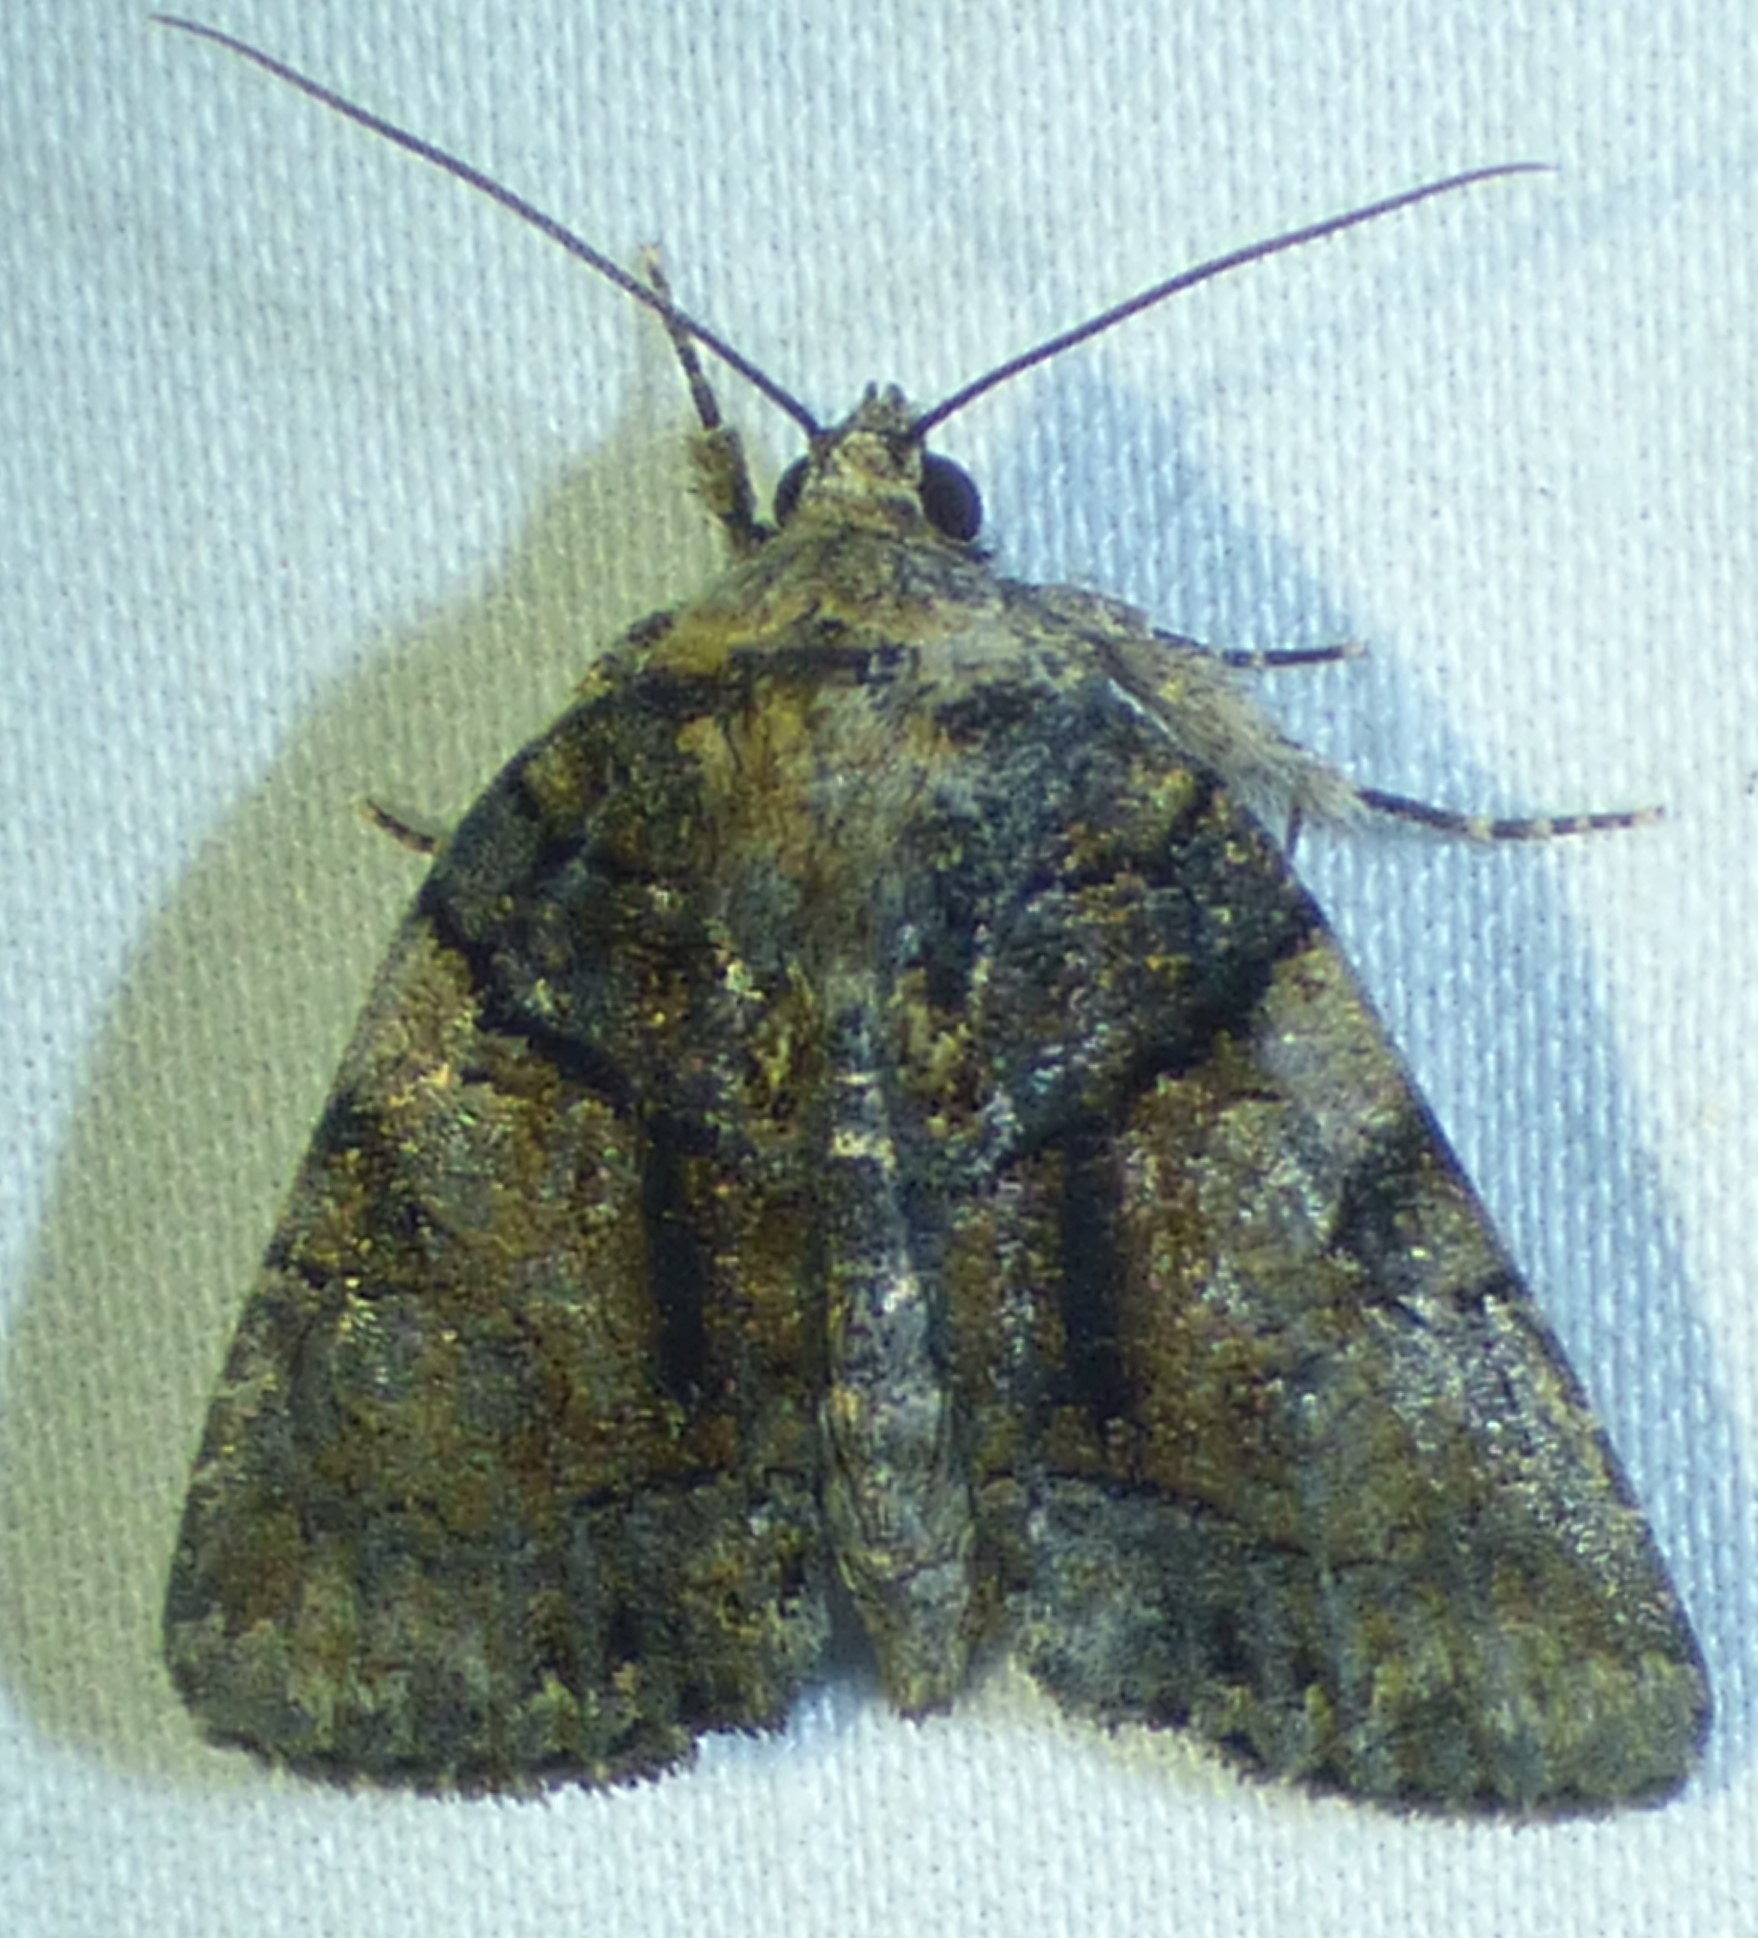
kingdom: Animalia
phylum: Arthropoda
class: Insecta
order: Lepidoptera
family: Noctuidae
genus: Chytonix
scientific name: Chytonix palliatricula
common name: Cloaked marvel
